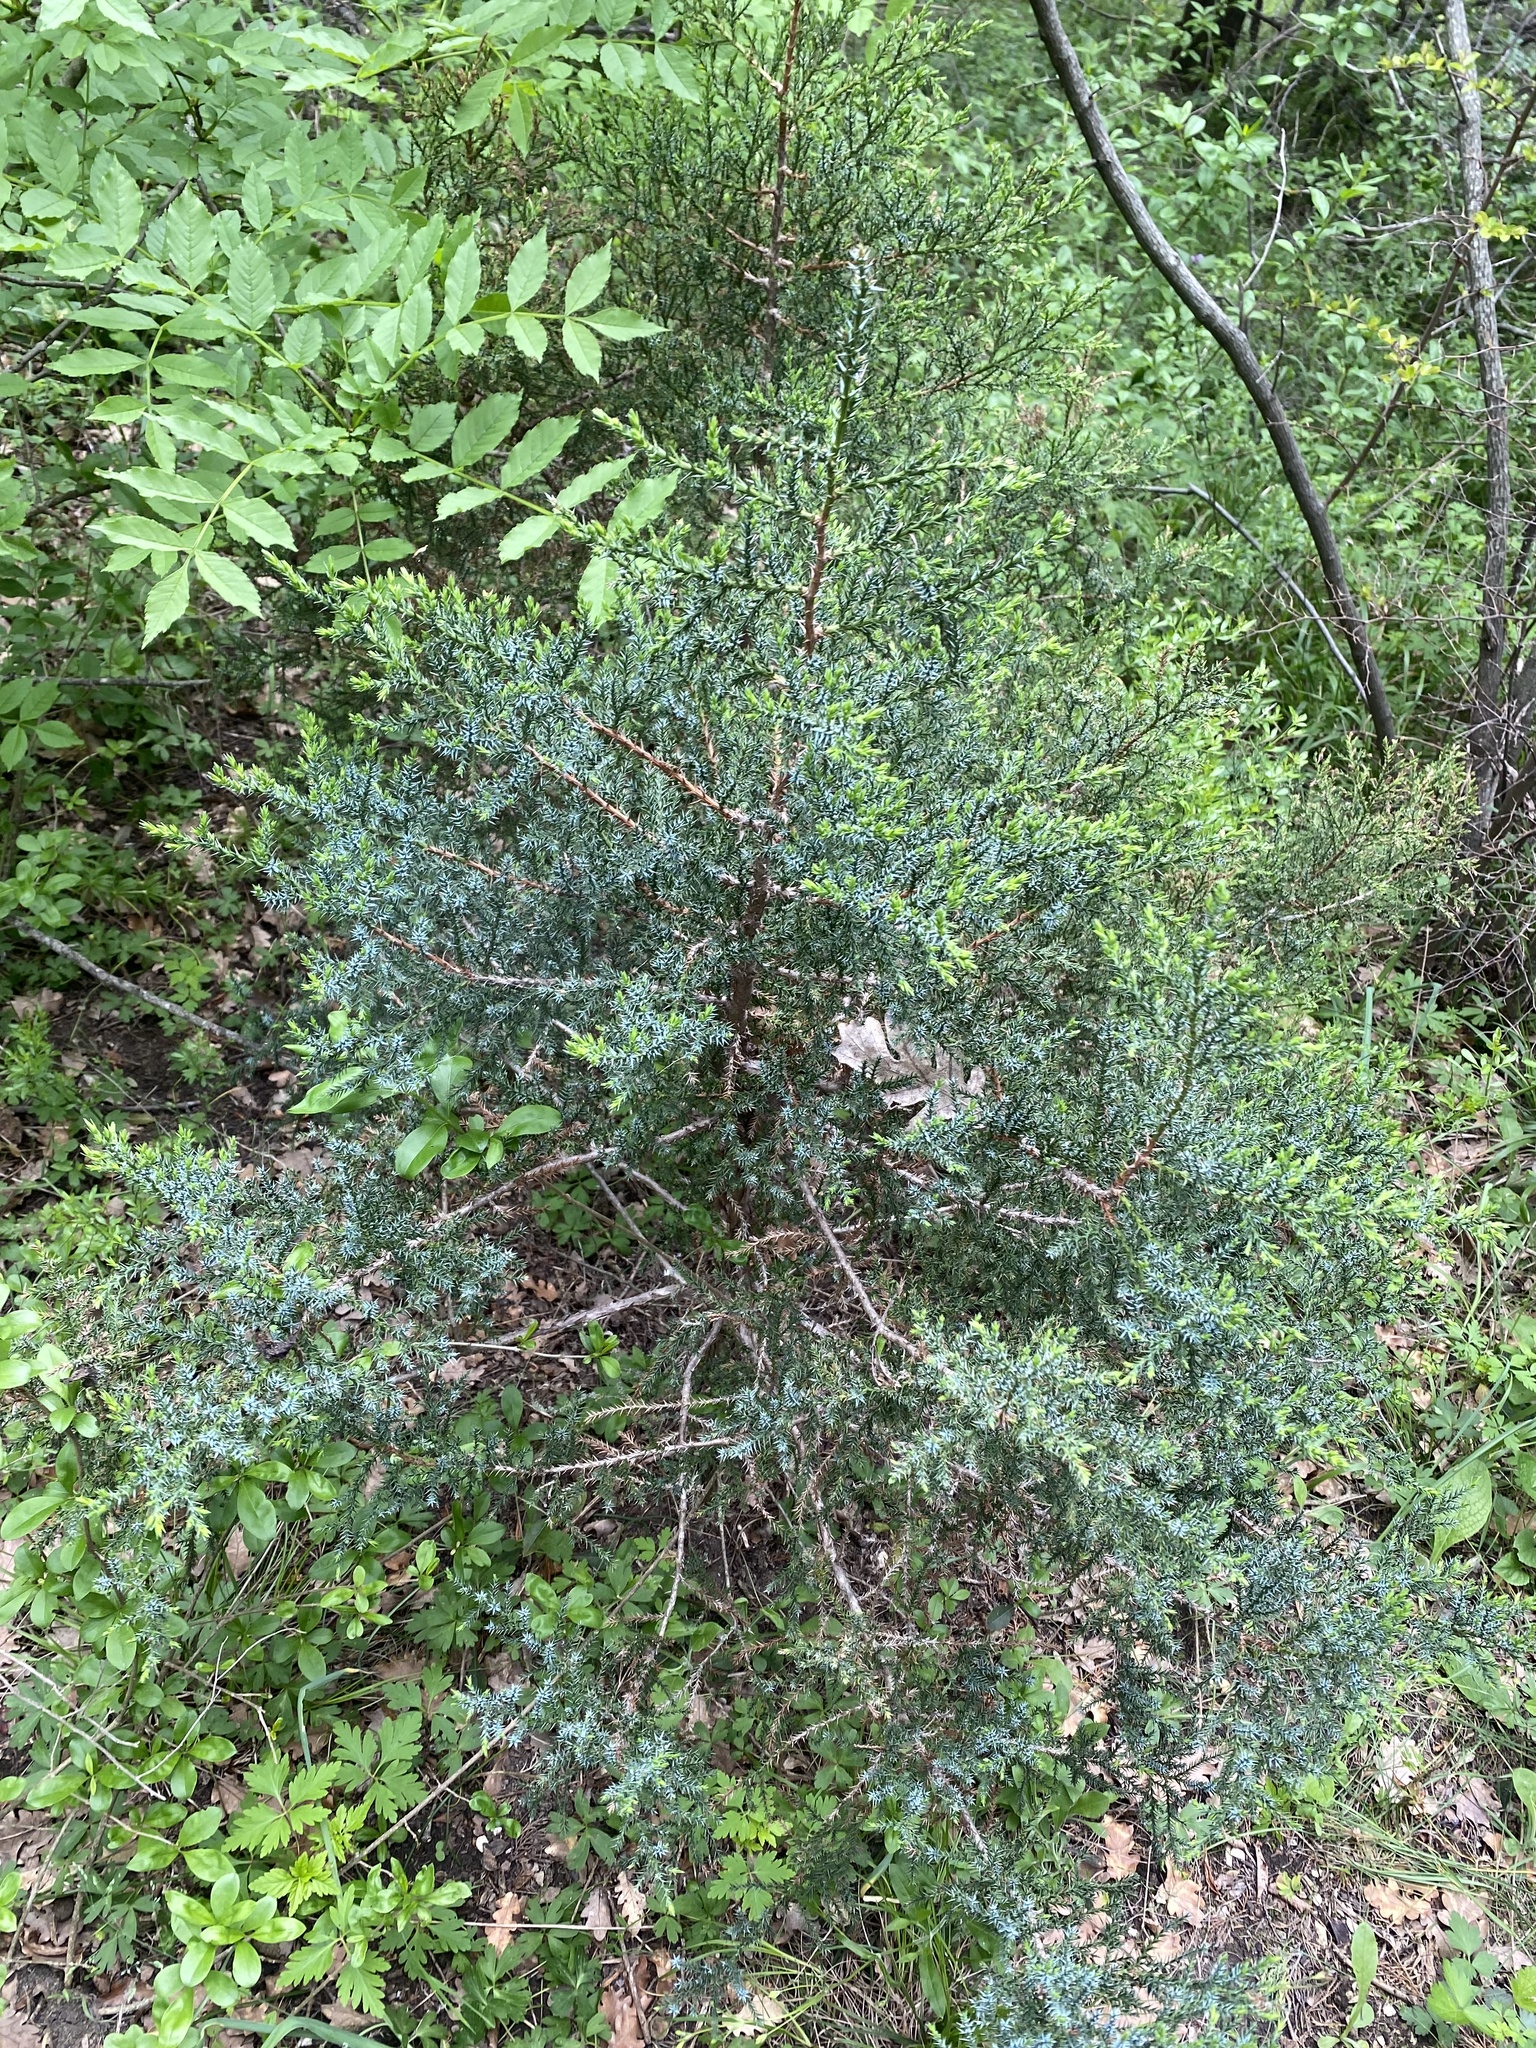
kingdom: Plantae
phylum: Tracheophyta
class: Pinopsida
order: Pinales
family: Cupressaceae
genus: Juniperus
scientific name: Juniperus foetidissima
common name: Stinking juniper
